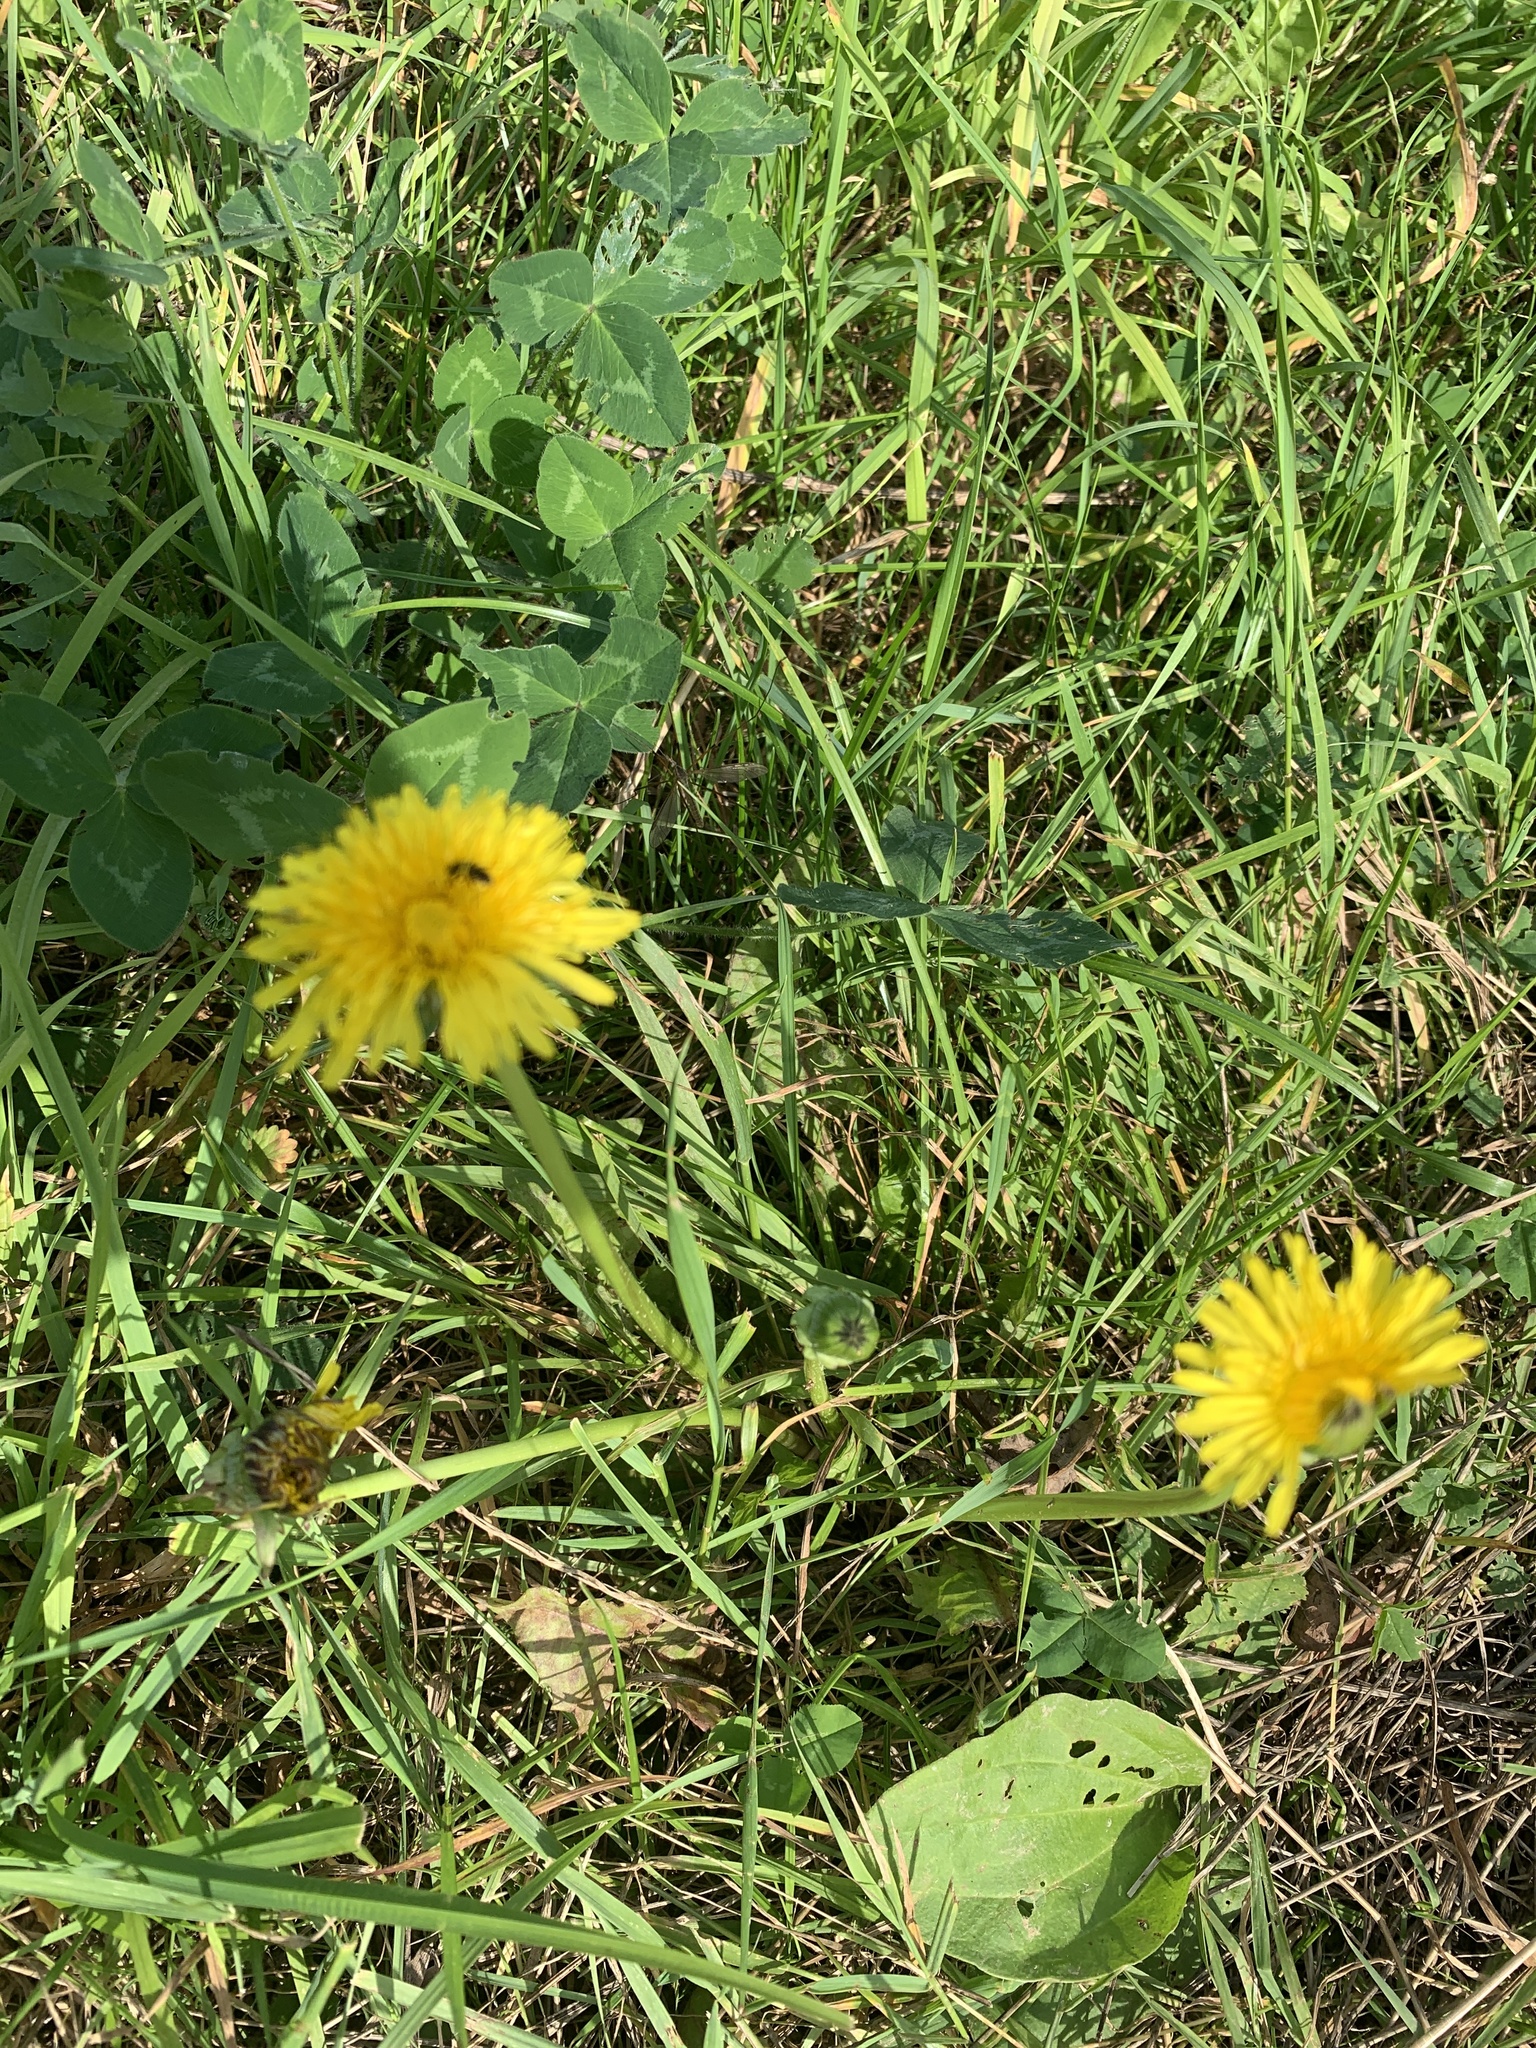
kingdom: Plantae
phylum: Tracheophyta
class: Magnoliopsida
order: Asterales
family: Asteraceae
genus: Taraxacum
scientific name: Taraxacum officinale
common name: Common dandelion
